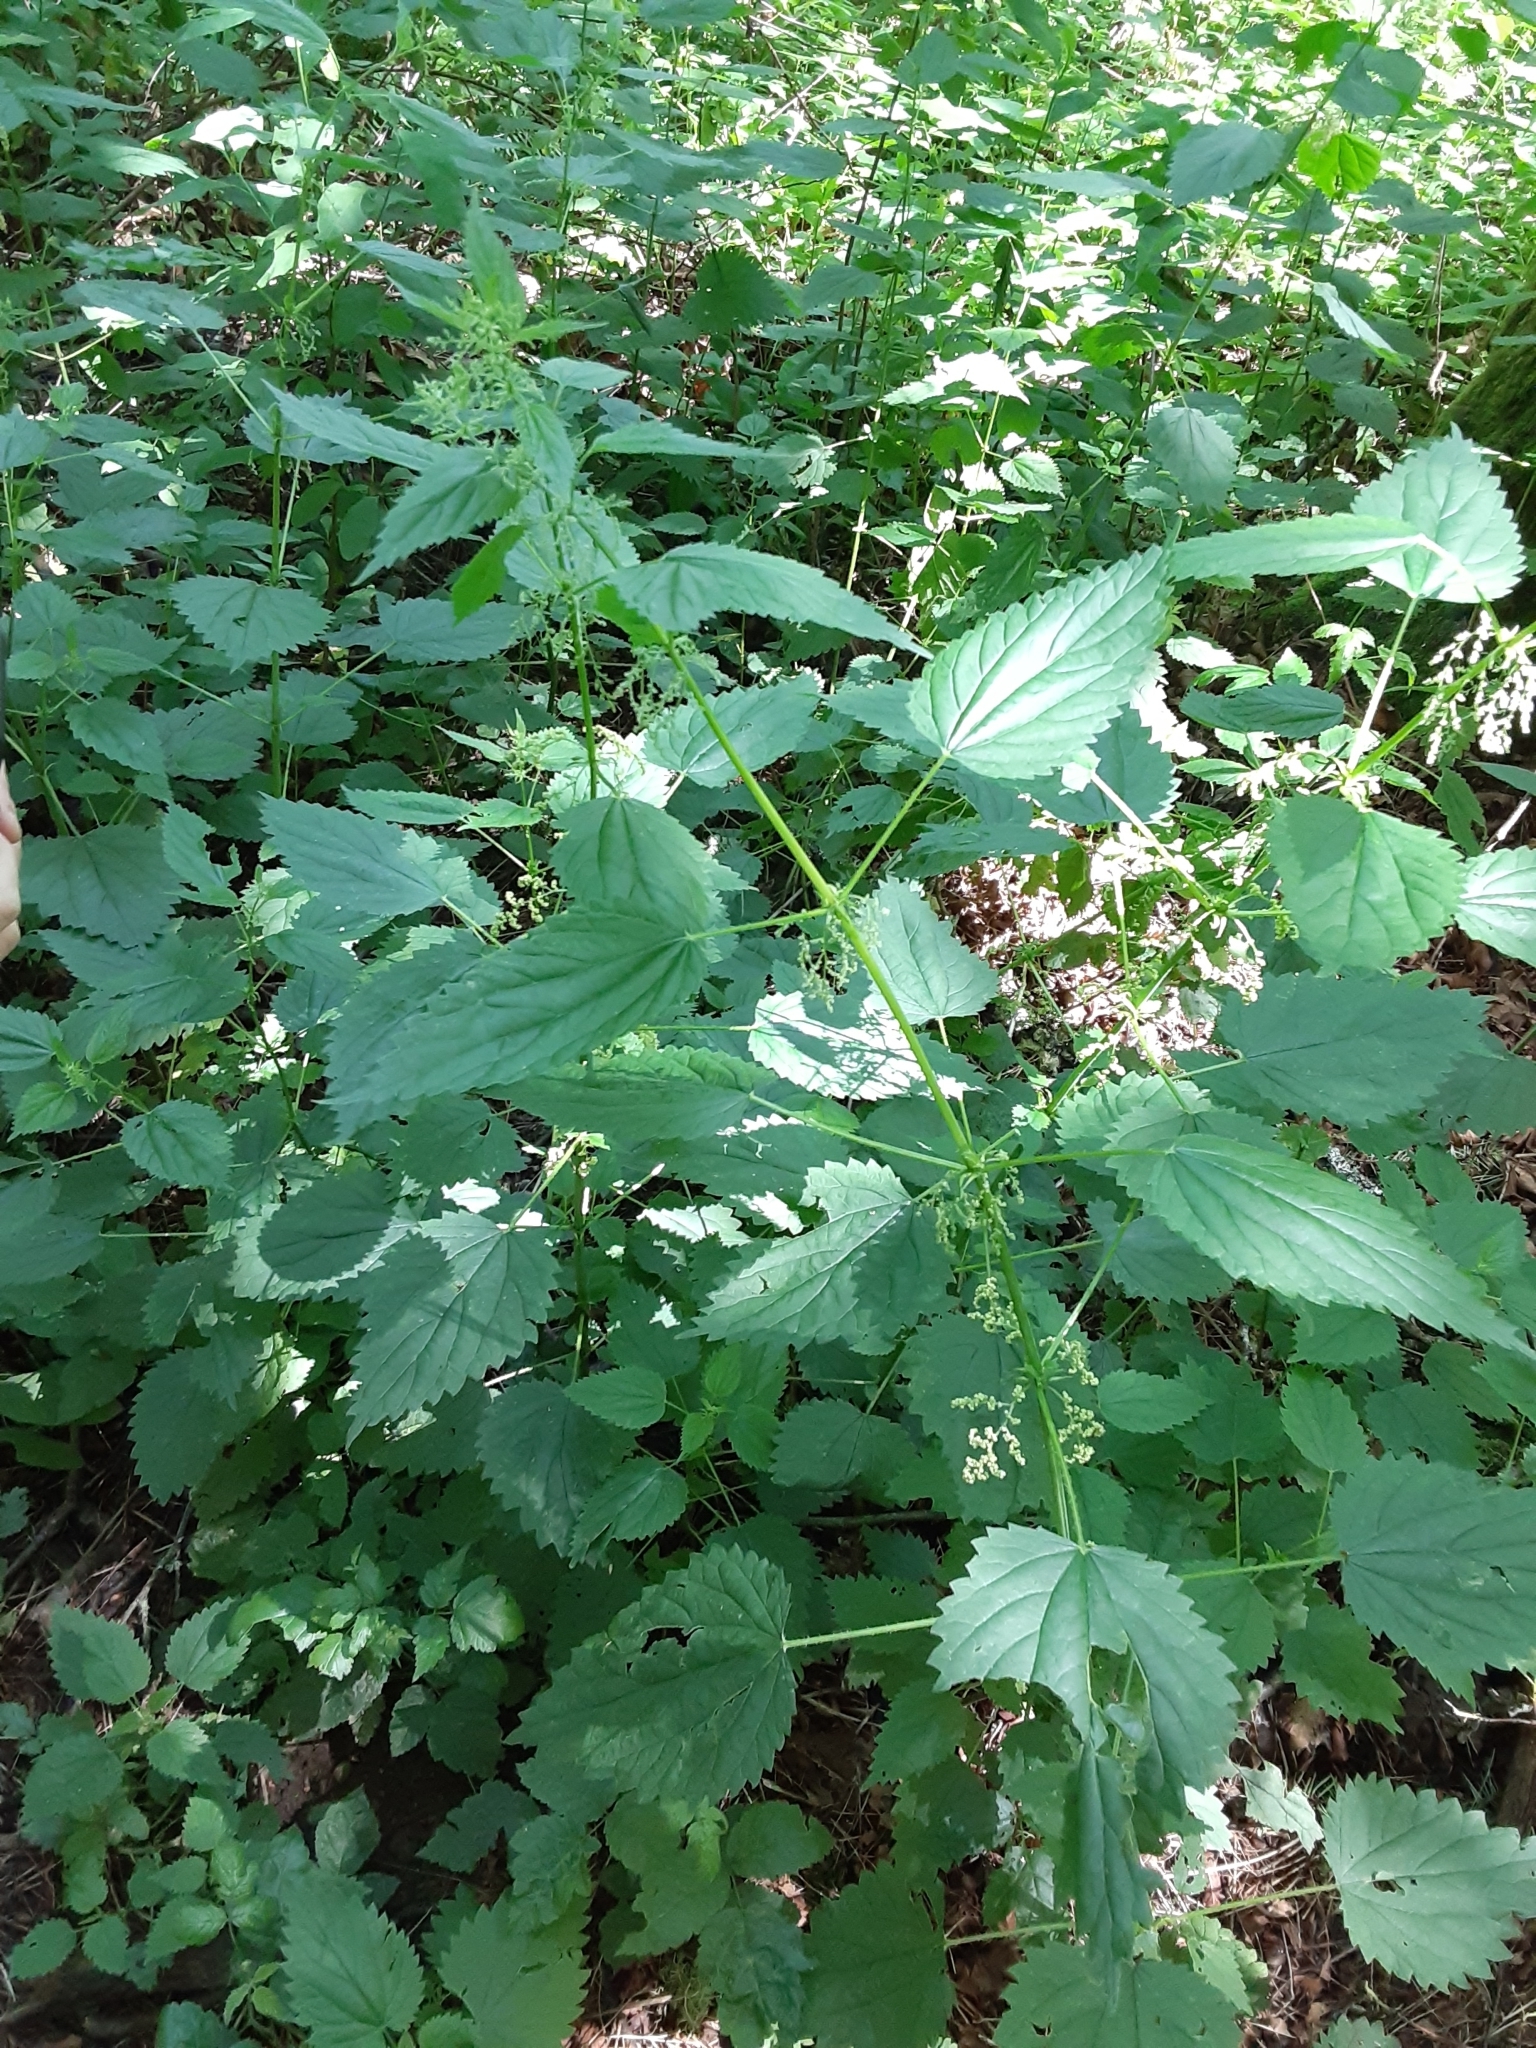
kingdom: Plantae
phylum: Tracheophyta
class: Magnoliopsida
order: Rosales
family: Urticaceae
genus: Urtica
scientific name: Urtica gracilis
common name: Slender stinging nettle
